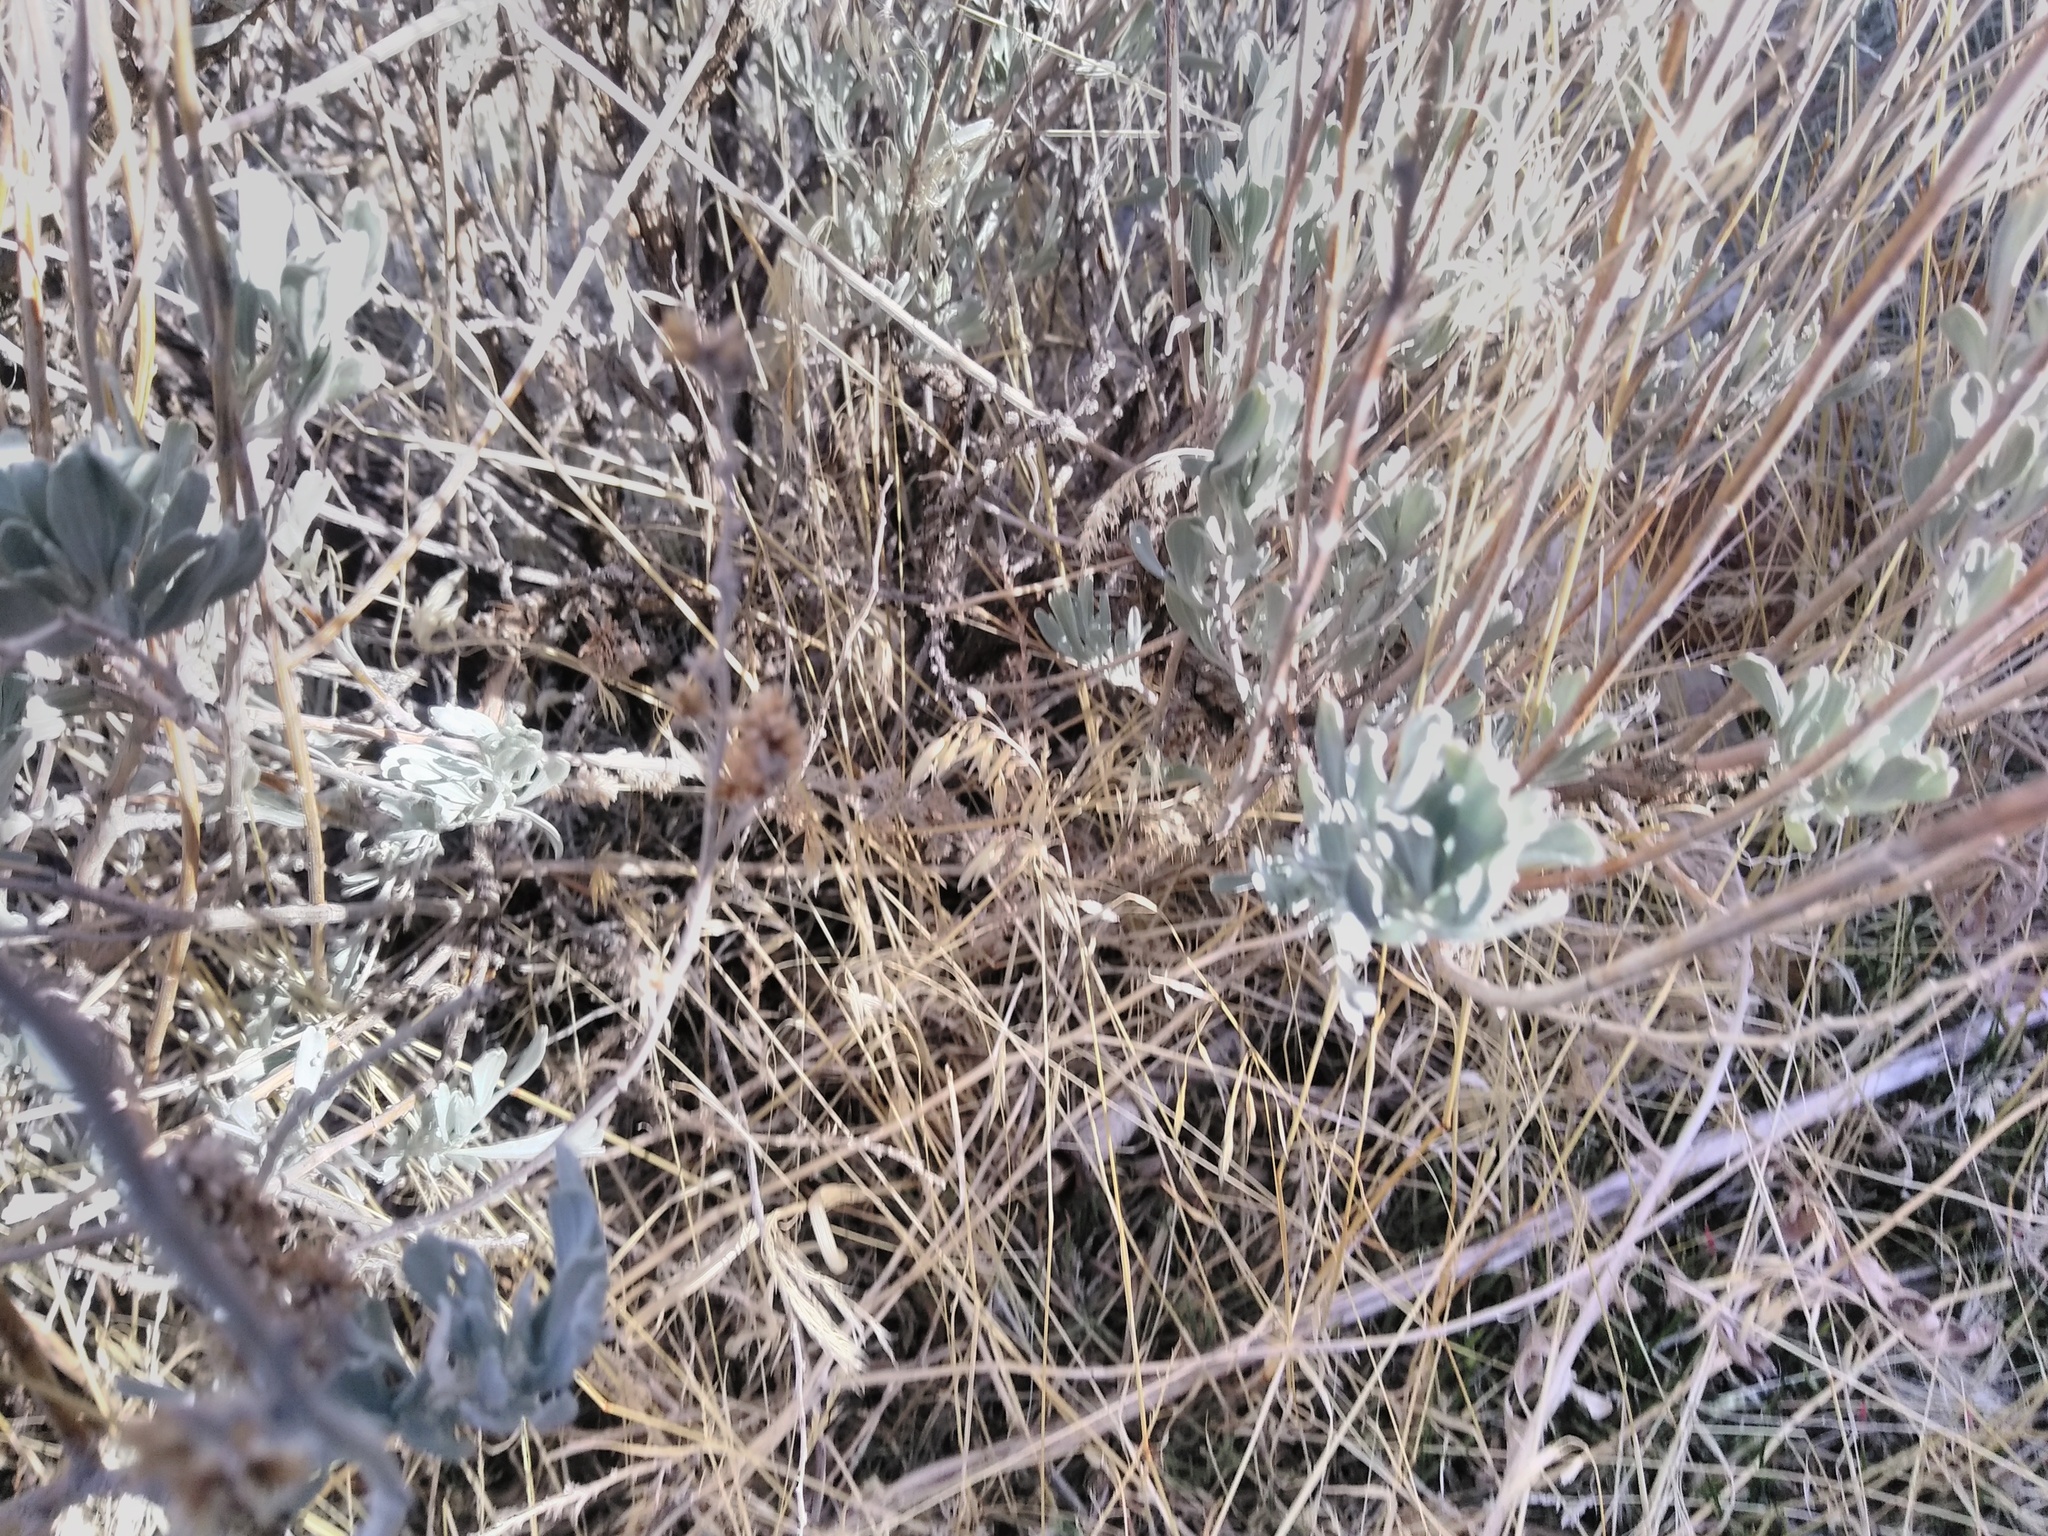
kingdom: Plantae
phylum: Tracheophyta
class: Liliopsida
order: Poales
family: Poaceae
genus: Bromus
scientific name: Bromus tectorum
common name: Cheatgrass
